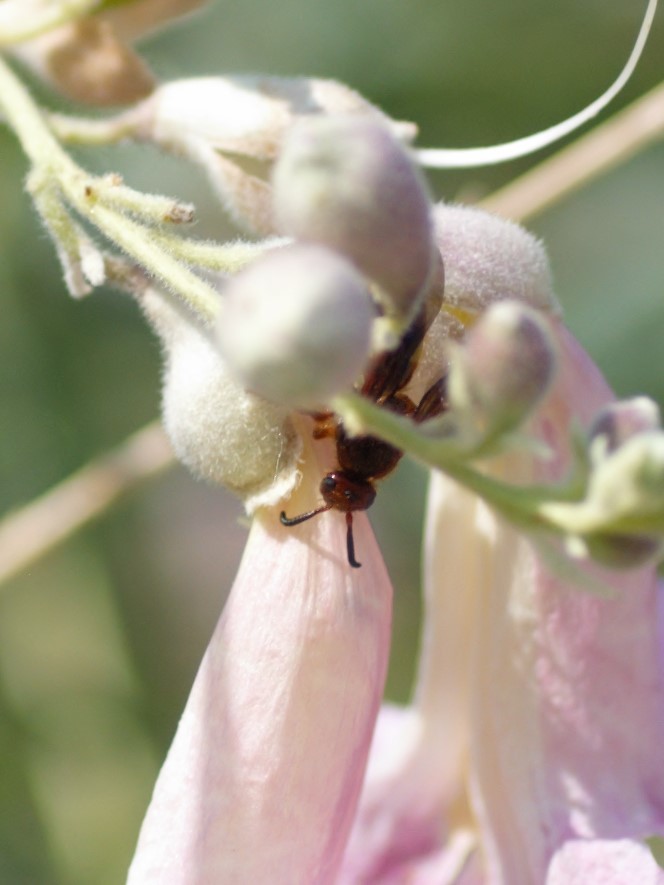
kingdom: Animalia
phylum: Arthropoda
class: Insecta
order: Hymenoptera
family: Scoliidae
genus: Scolia
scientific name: Scolia nobilitata
